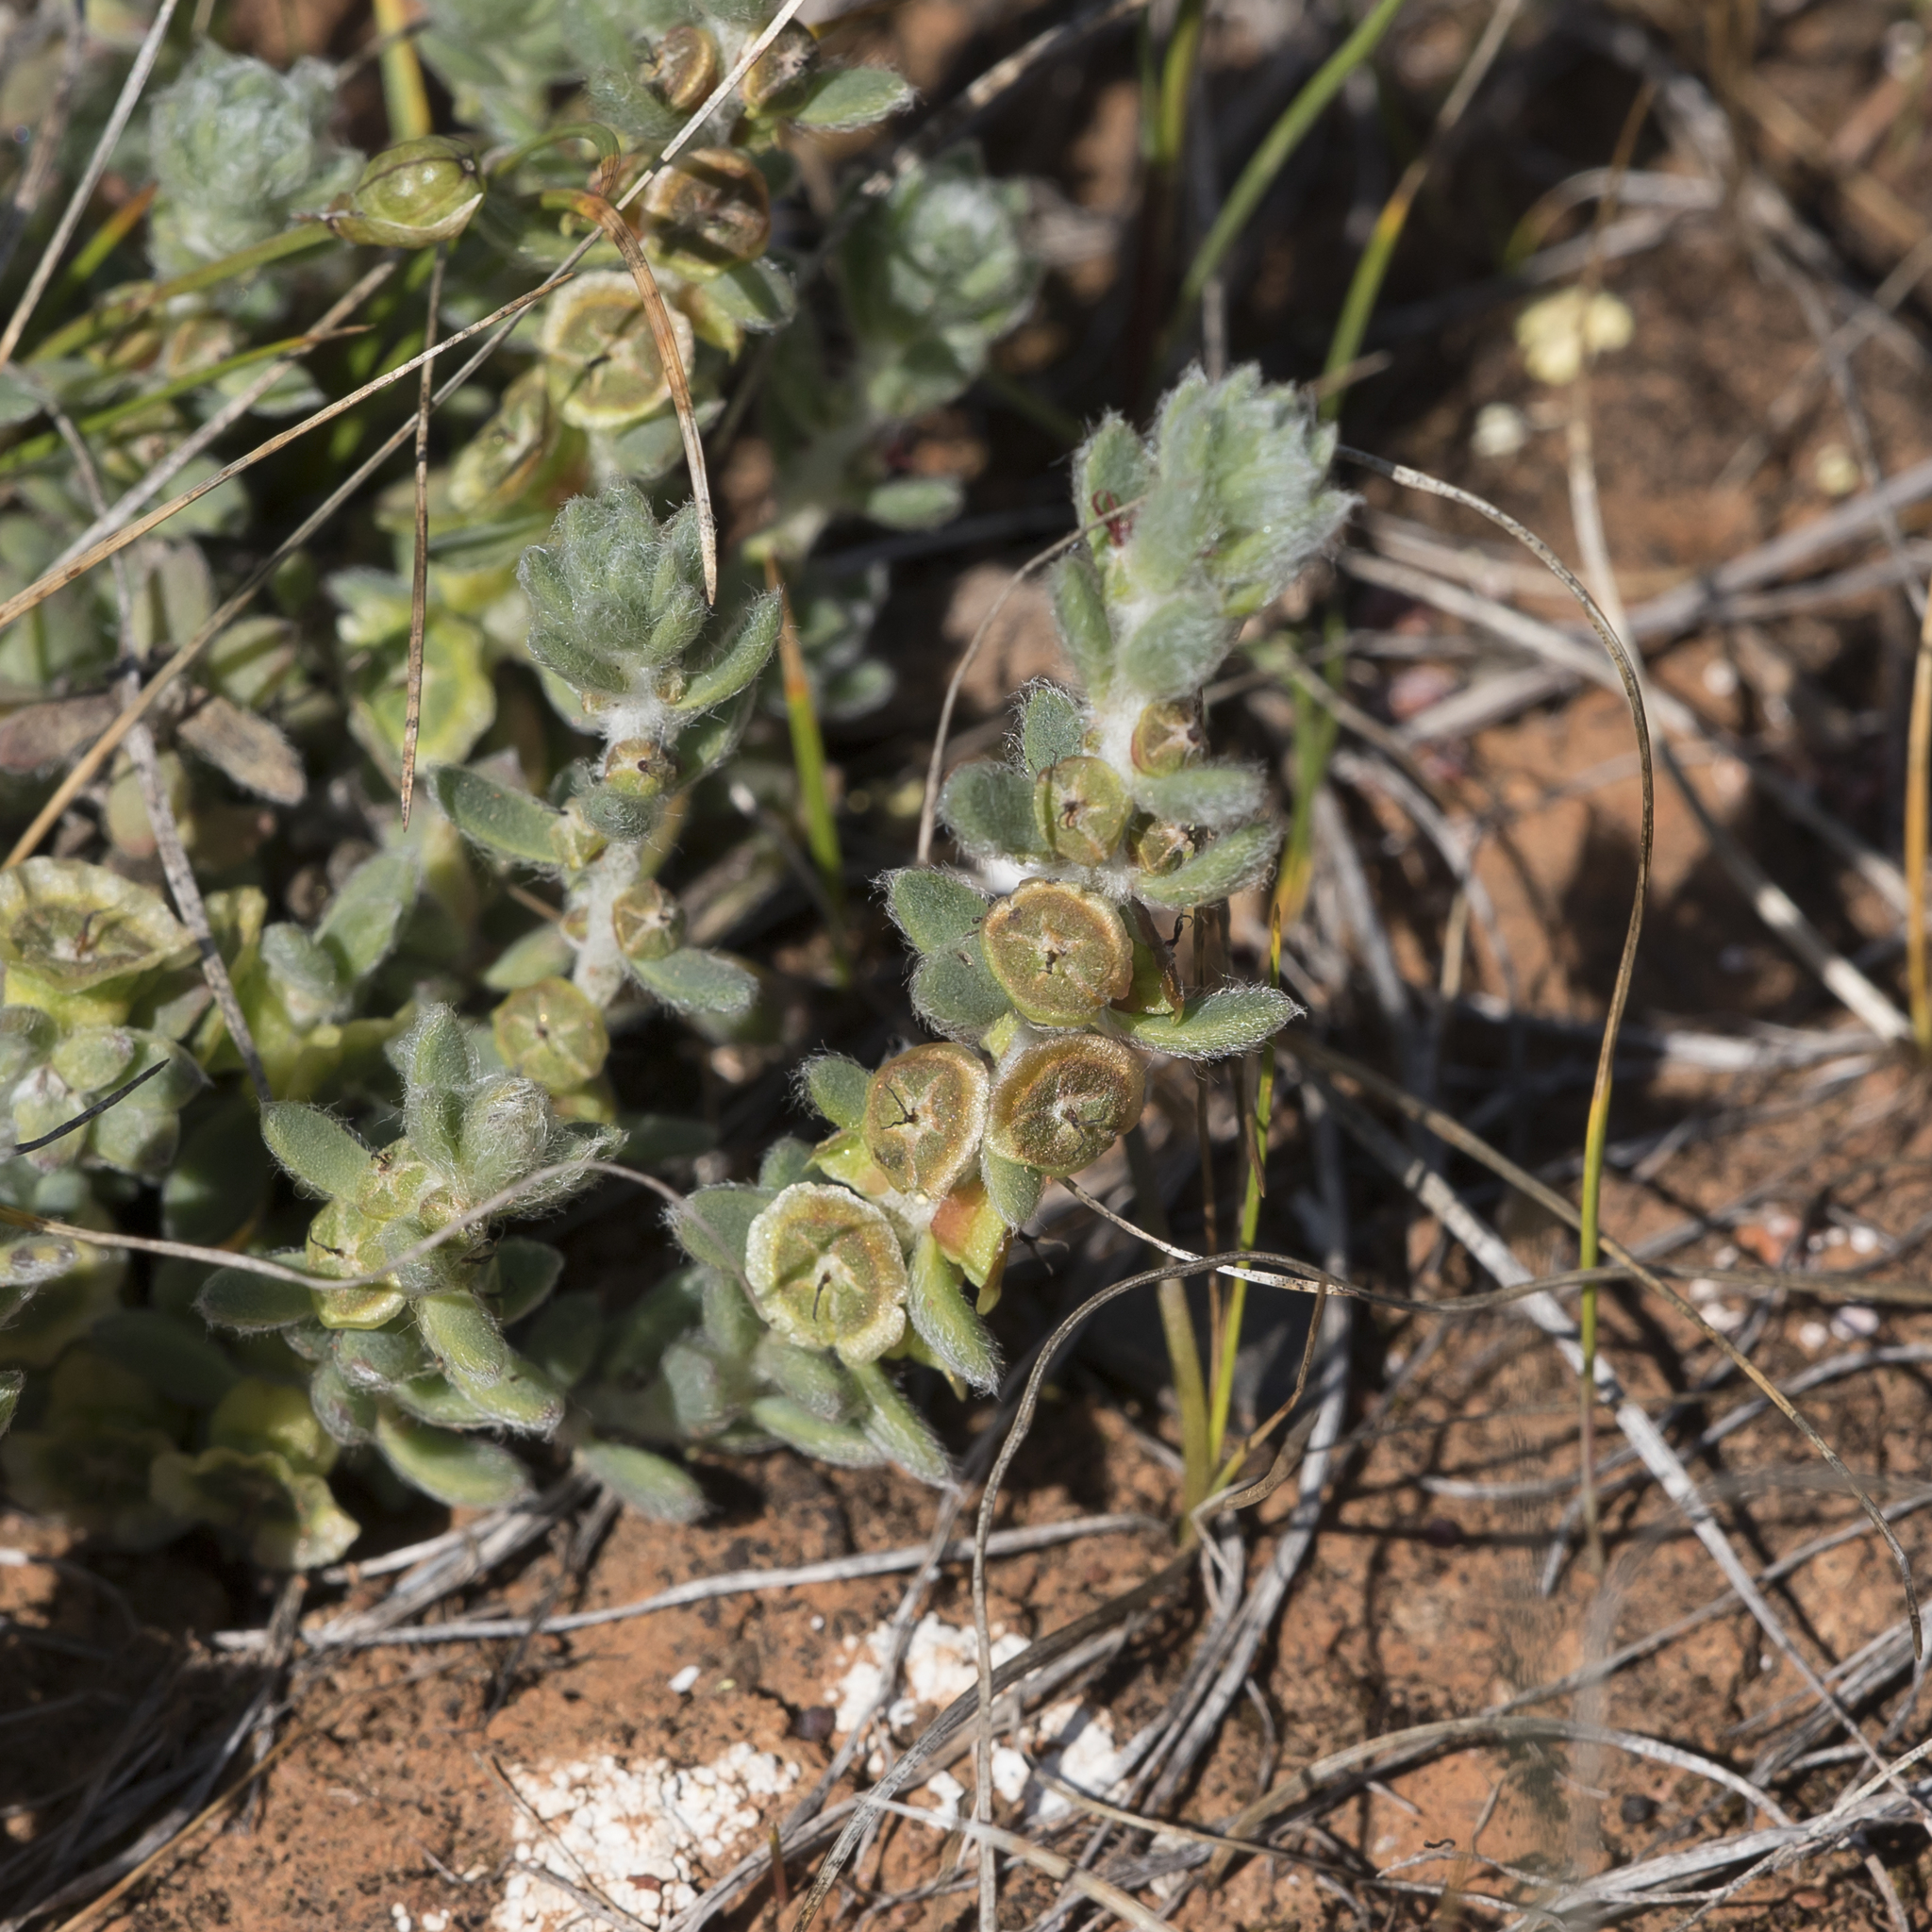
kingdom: Plantae
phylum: Tracheophyta
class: Magnoliopsida
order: Caryophyllales
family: Amaranthaceae
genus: Maireana
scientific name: Maireana excavata
